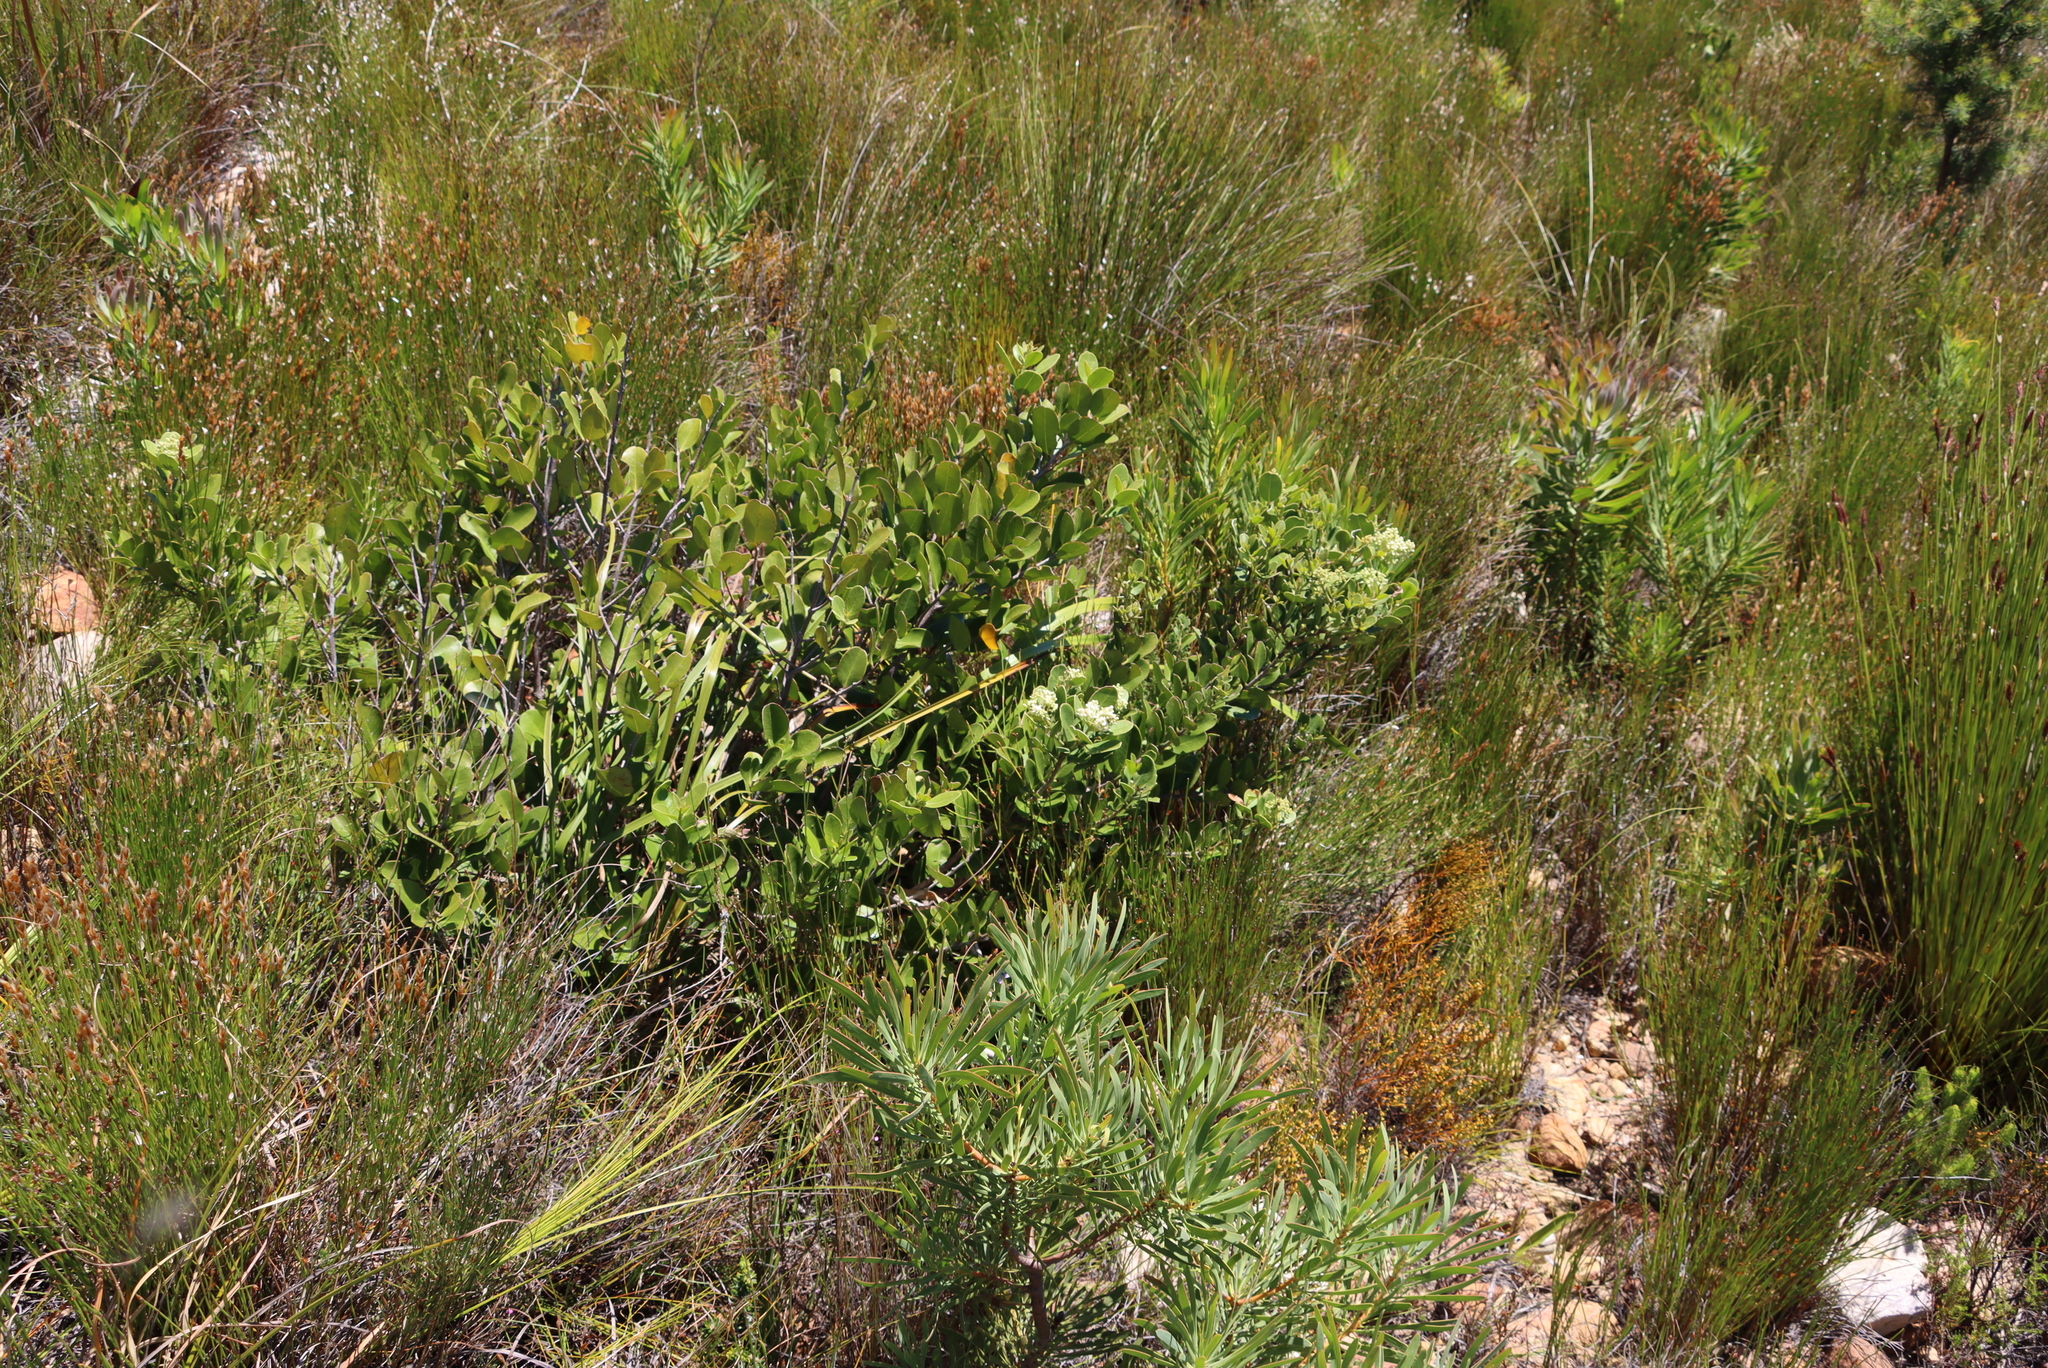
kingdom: Plantae
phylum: Tracheophyta
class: Magnoliopsida
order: Lamiales
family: Oleaceae
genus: Olea
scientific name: Olea capensis
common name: Black ironwood
